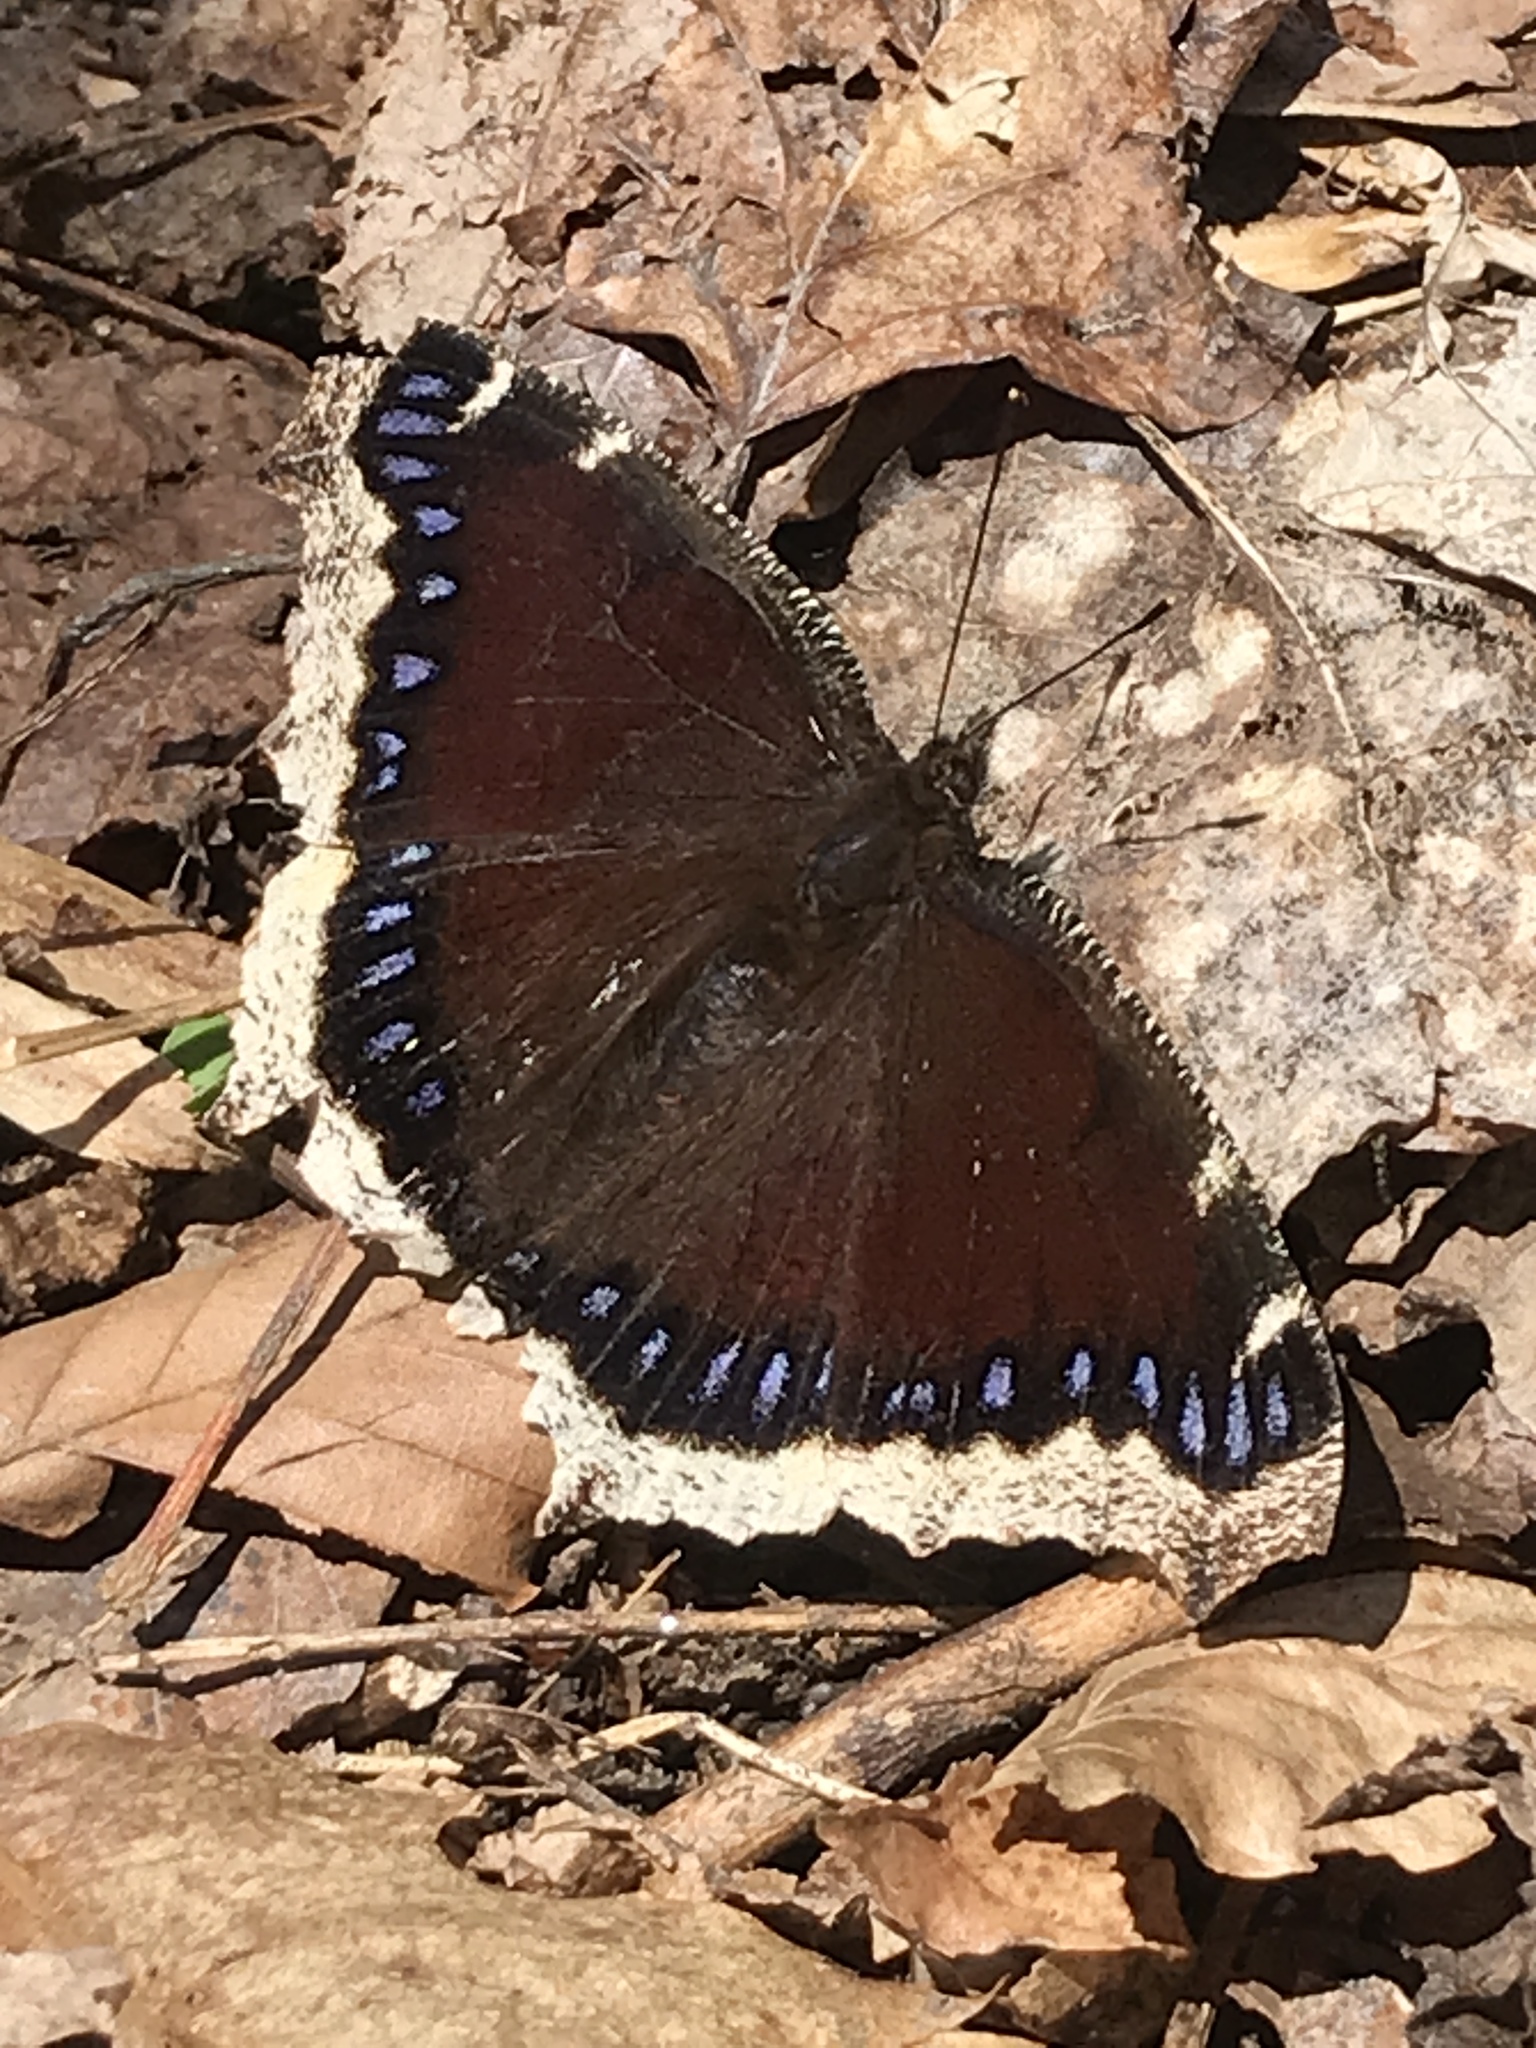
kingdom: Animalia
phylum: Arthropoda
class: Insecta
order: Lepidoptera
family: Nymphalidae
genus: Nymphalis
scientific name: Nymphalis antiopa
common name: Camberwell beauty
